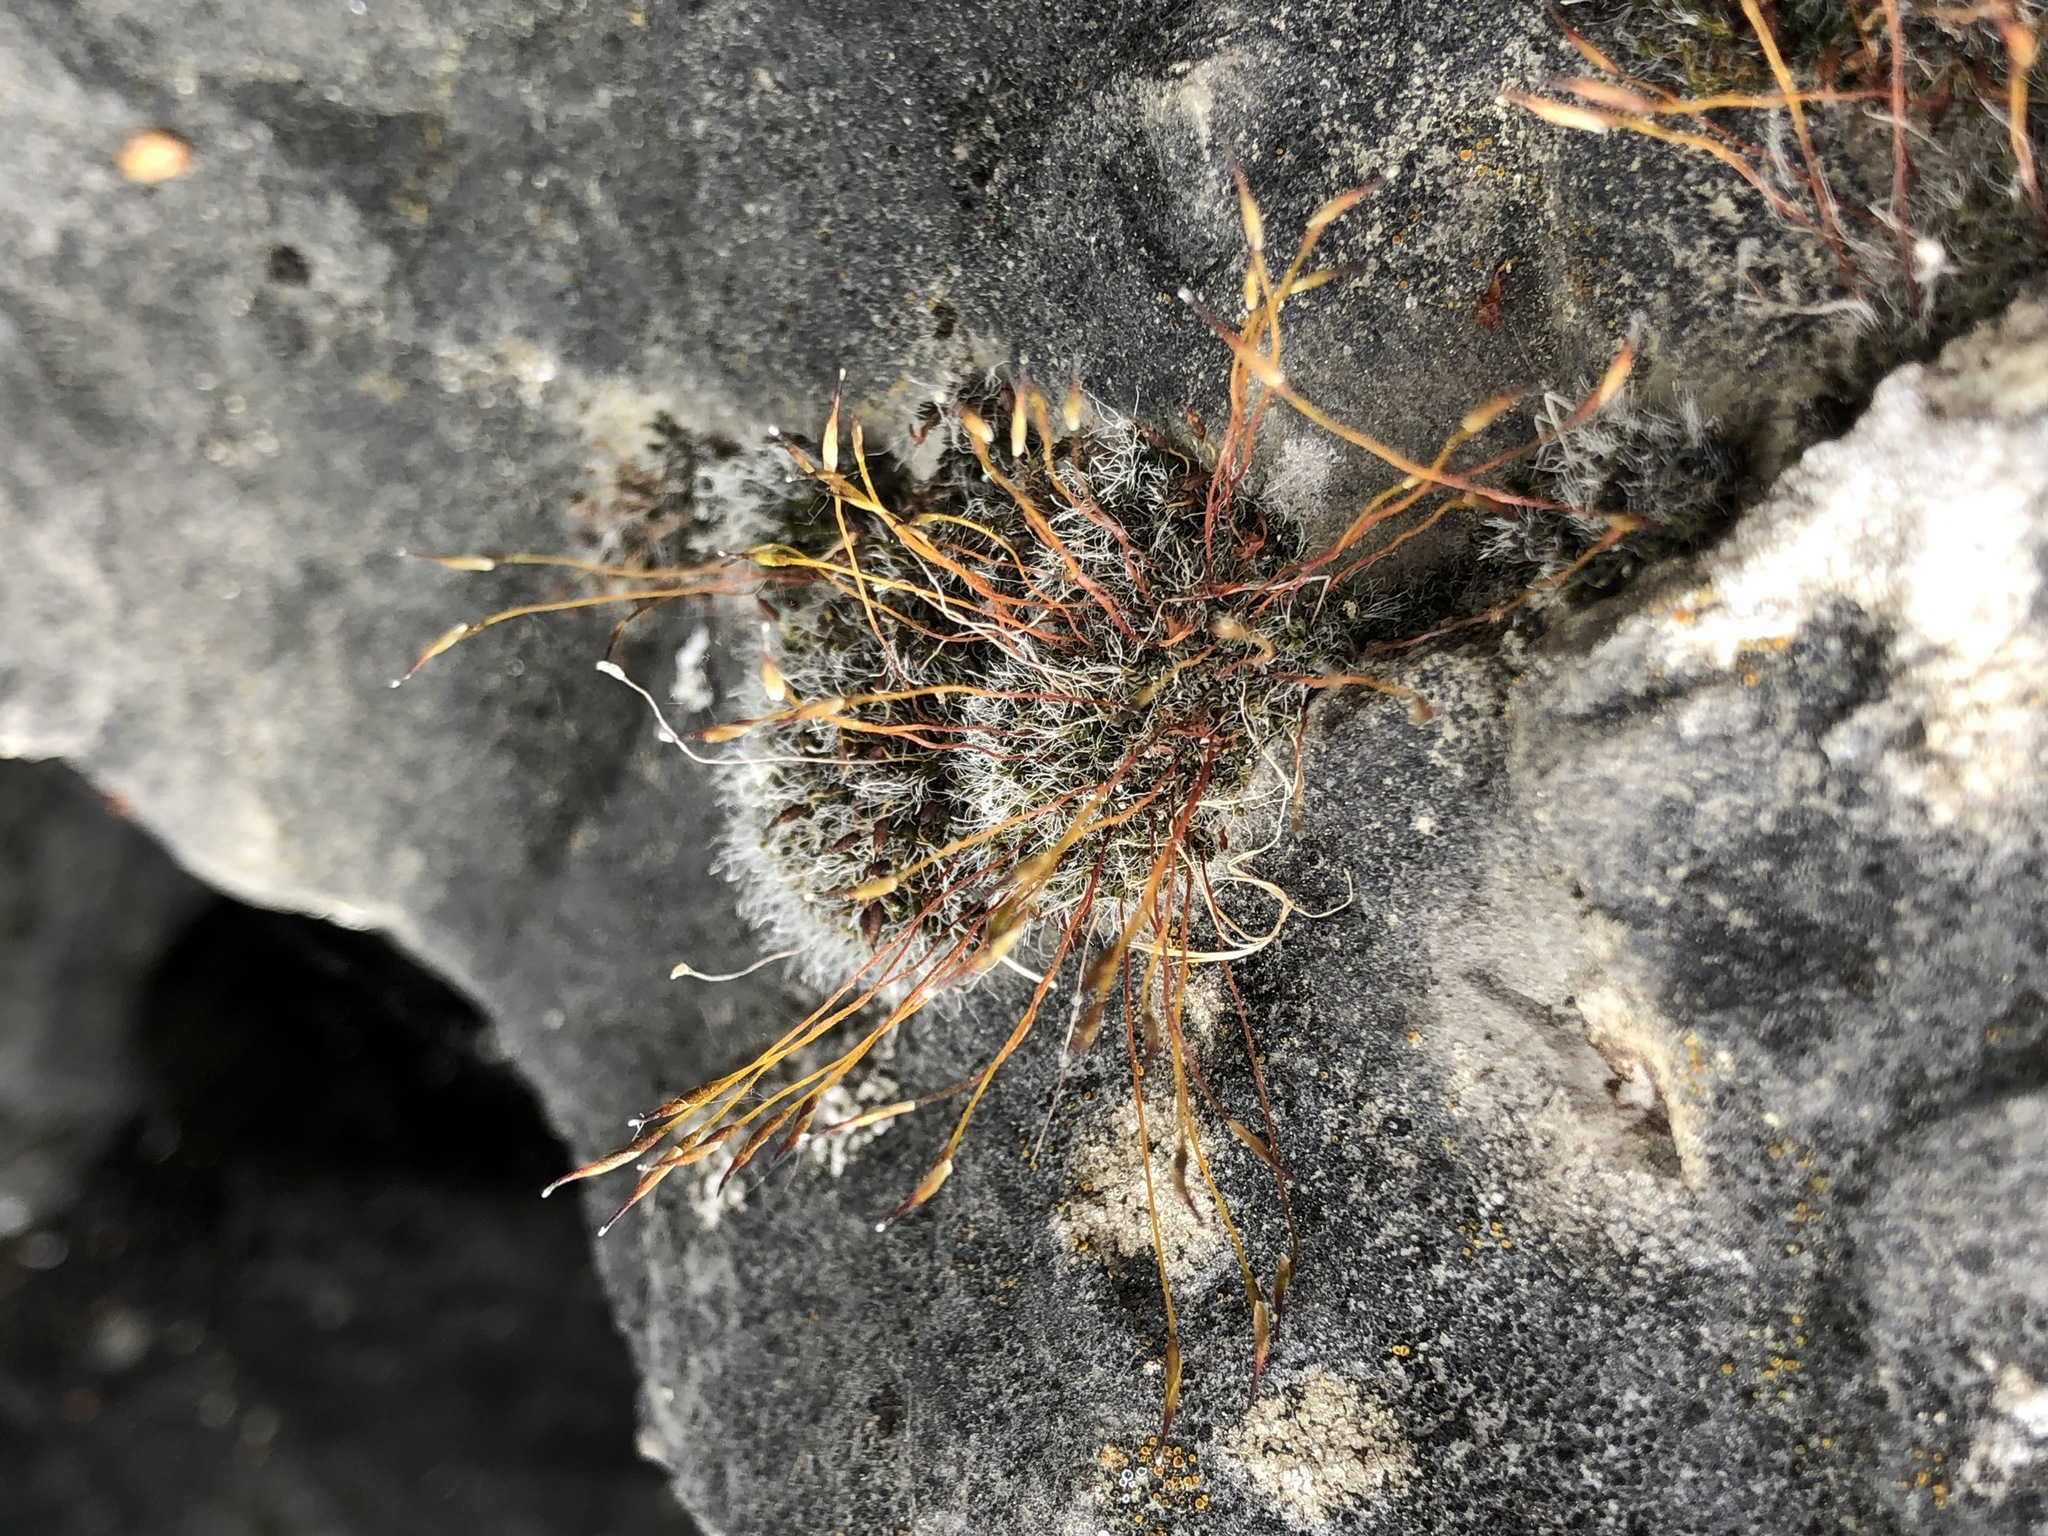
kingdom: Plantae
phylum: Bryophyta
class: Bryopsida
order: Pottiales
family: Pottiaceae
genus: Tortula
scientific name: Tortula muralis
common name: Wall screw-moss
